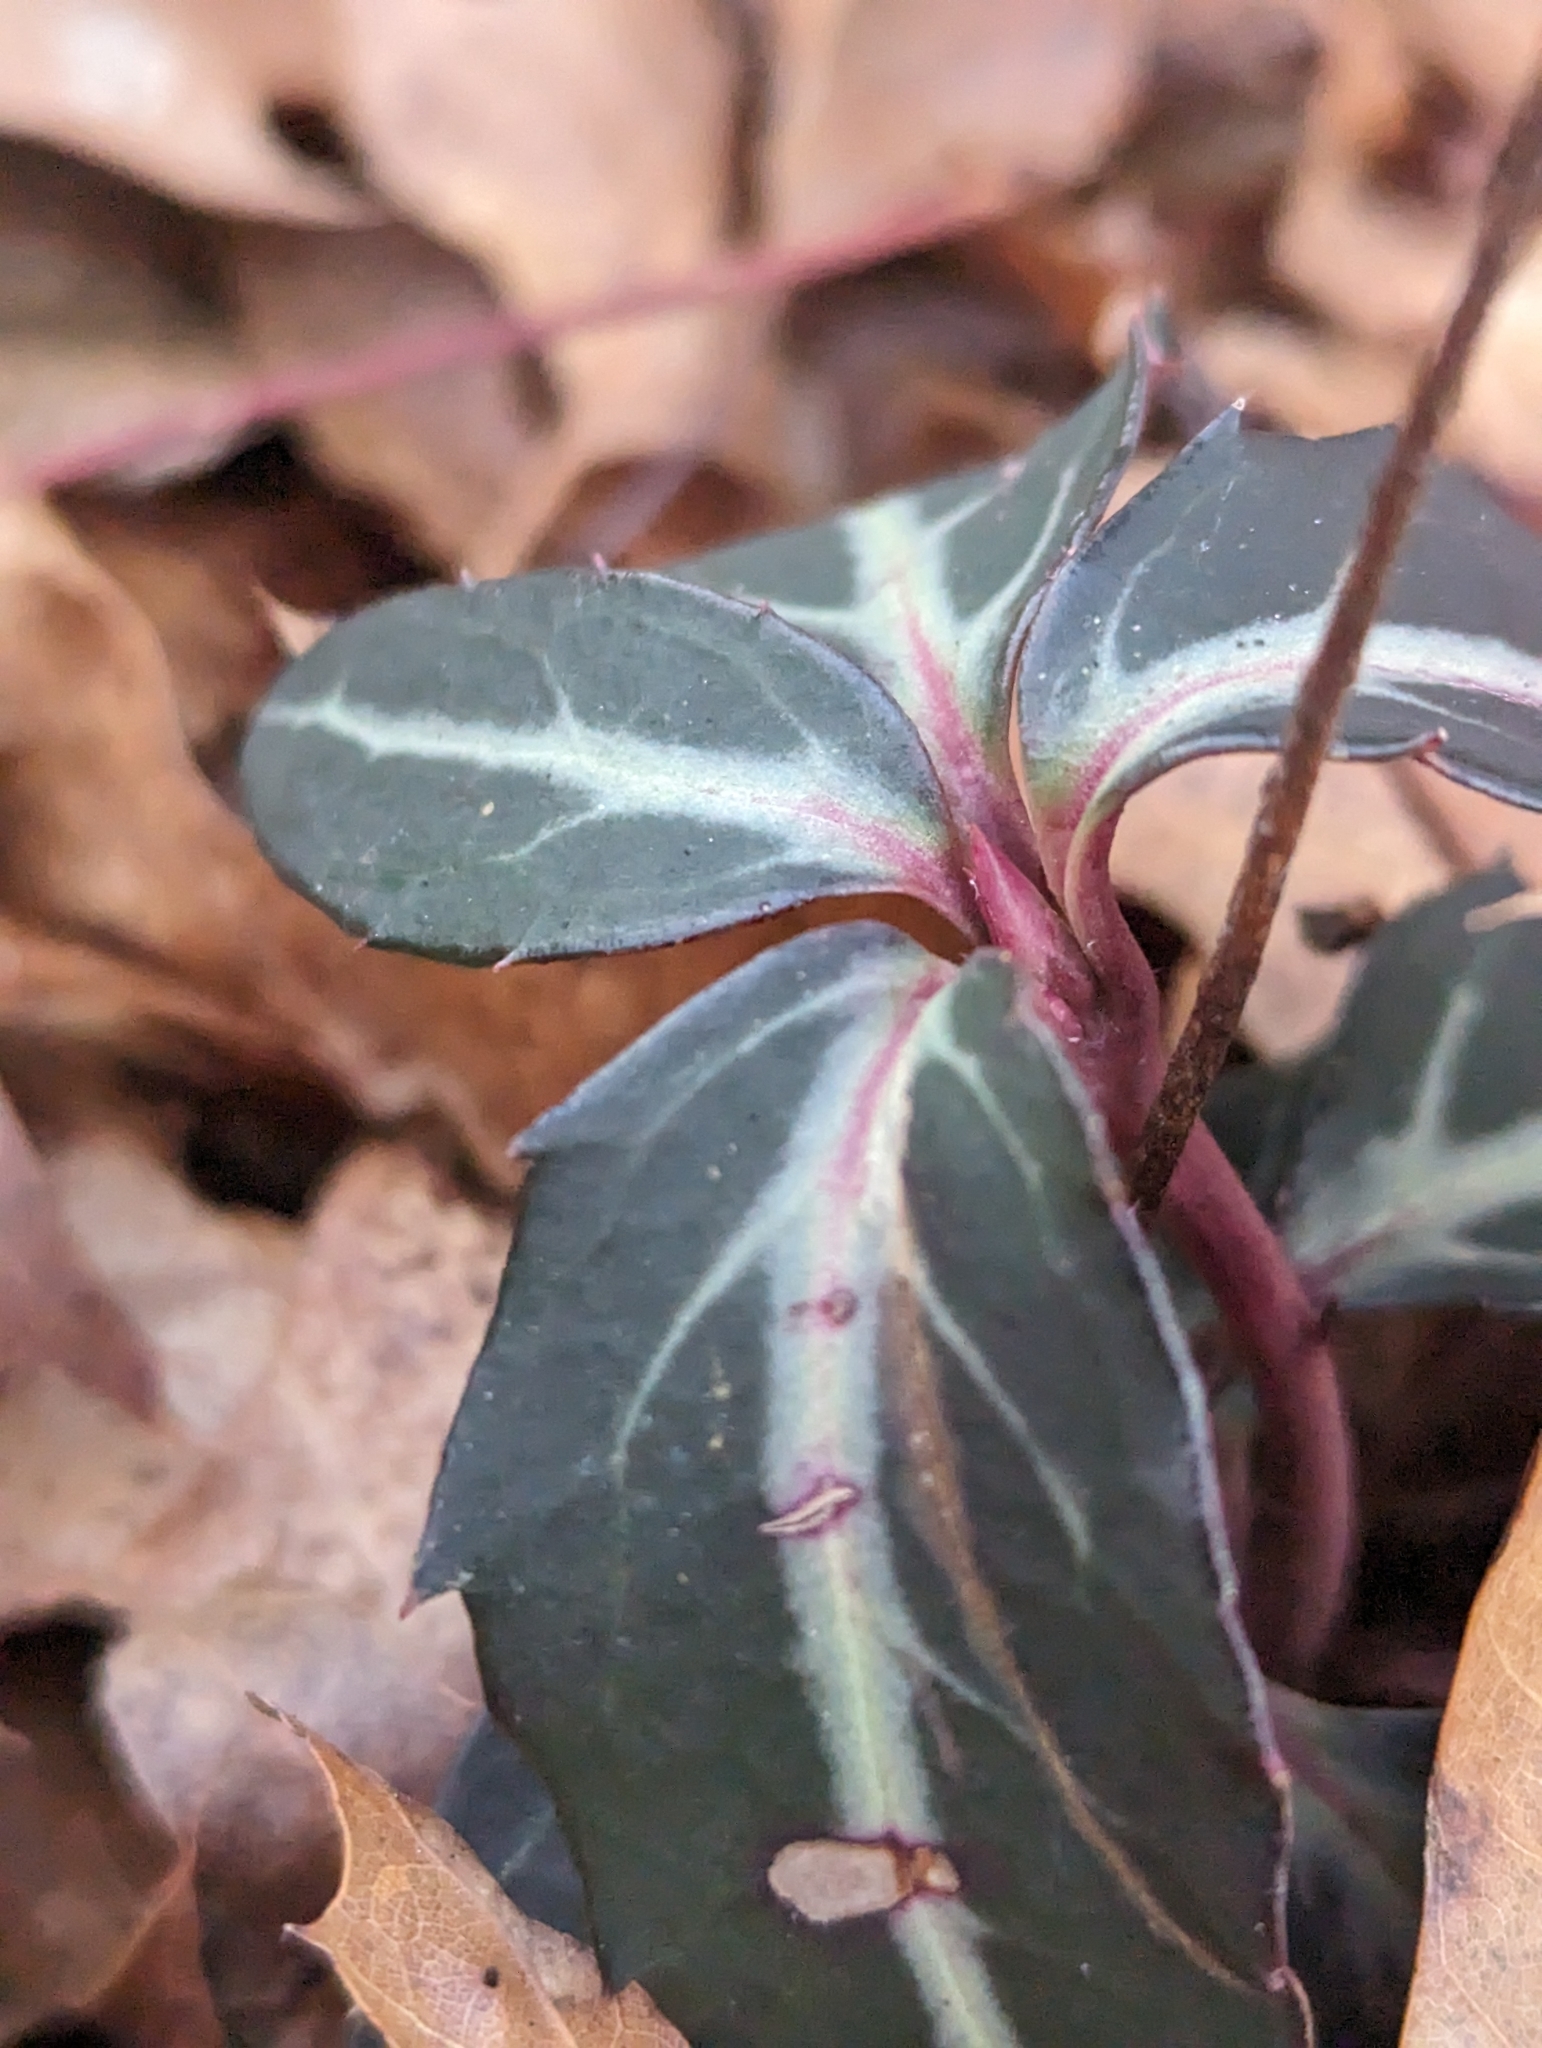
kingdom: Plantae
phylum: Tracheophyta
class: Magnoliopsida
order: Ericales
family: Ericaceae
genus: Chimaphila
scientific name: Chimaphila maculata
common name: Spotted pipsissewa
